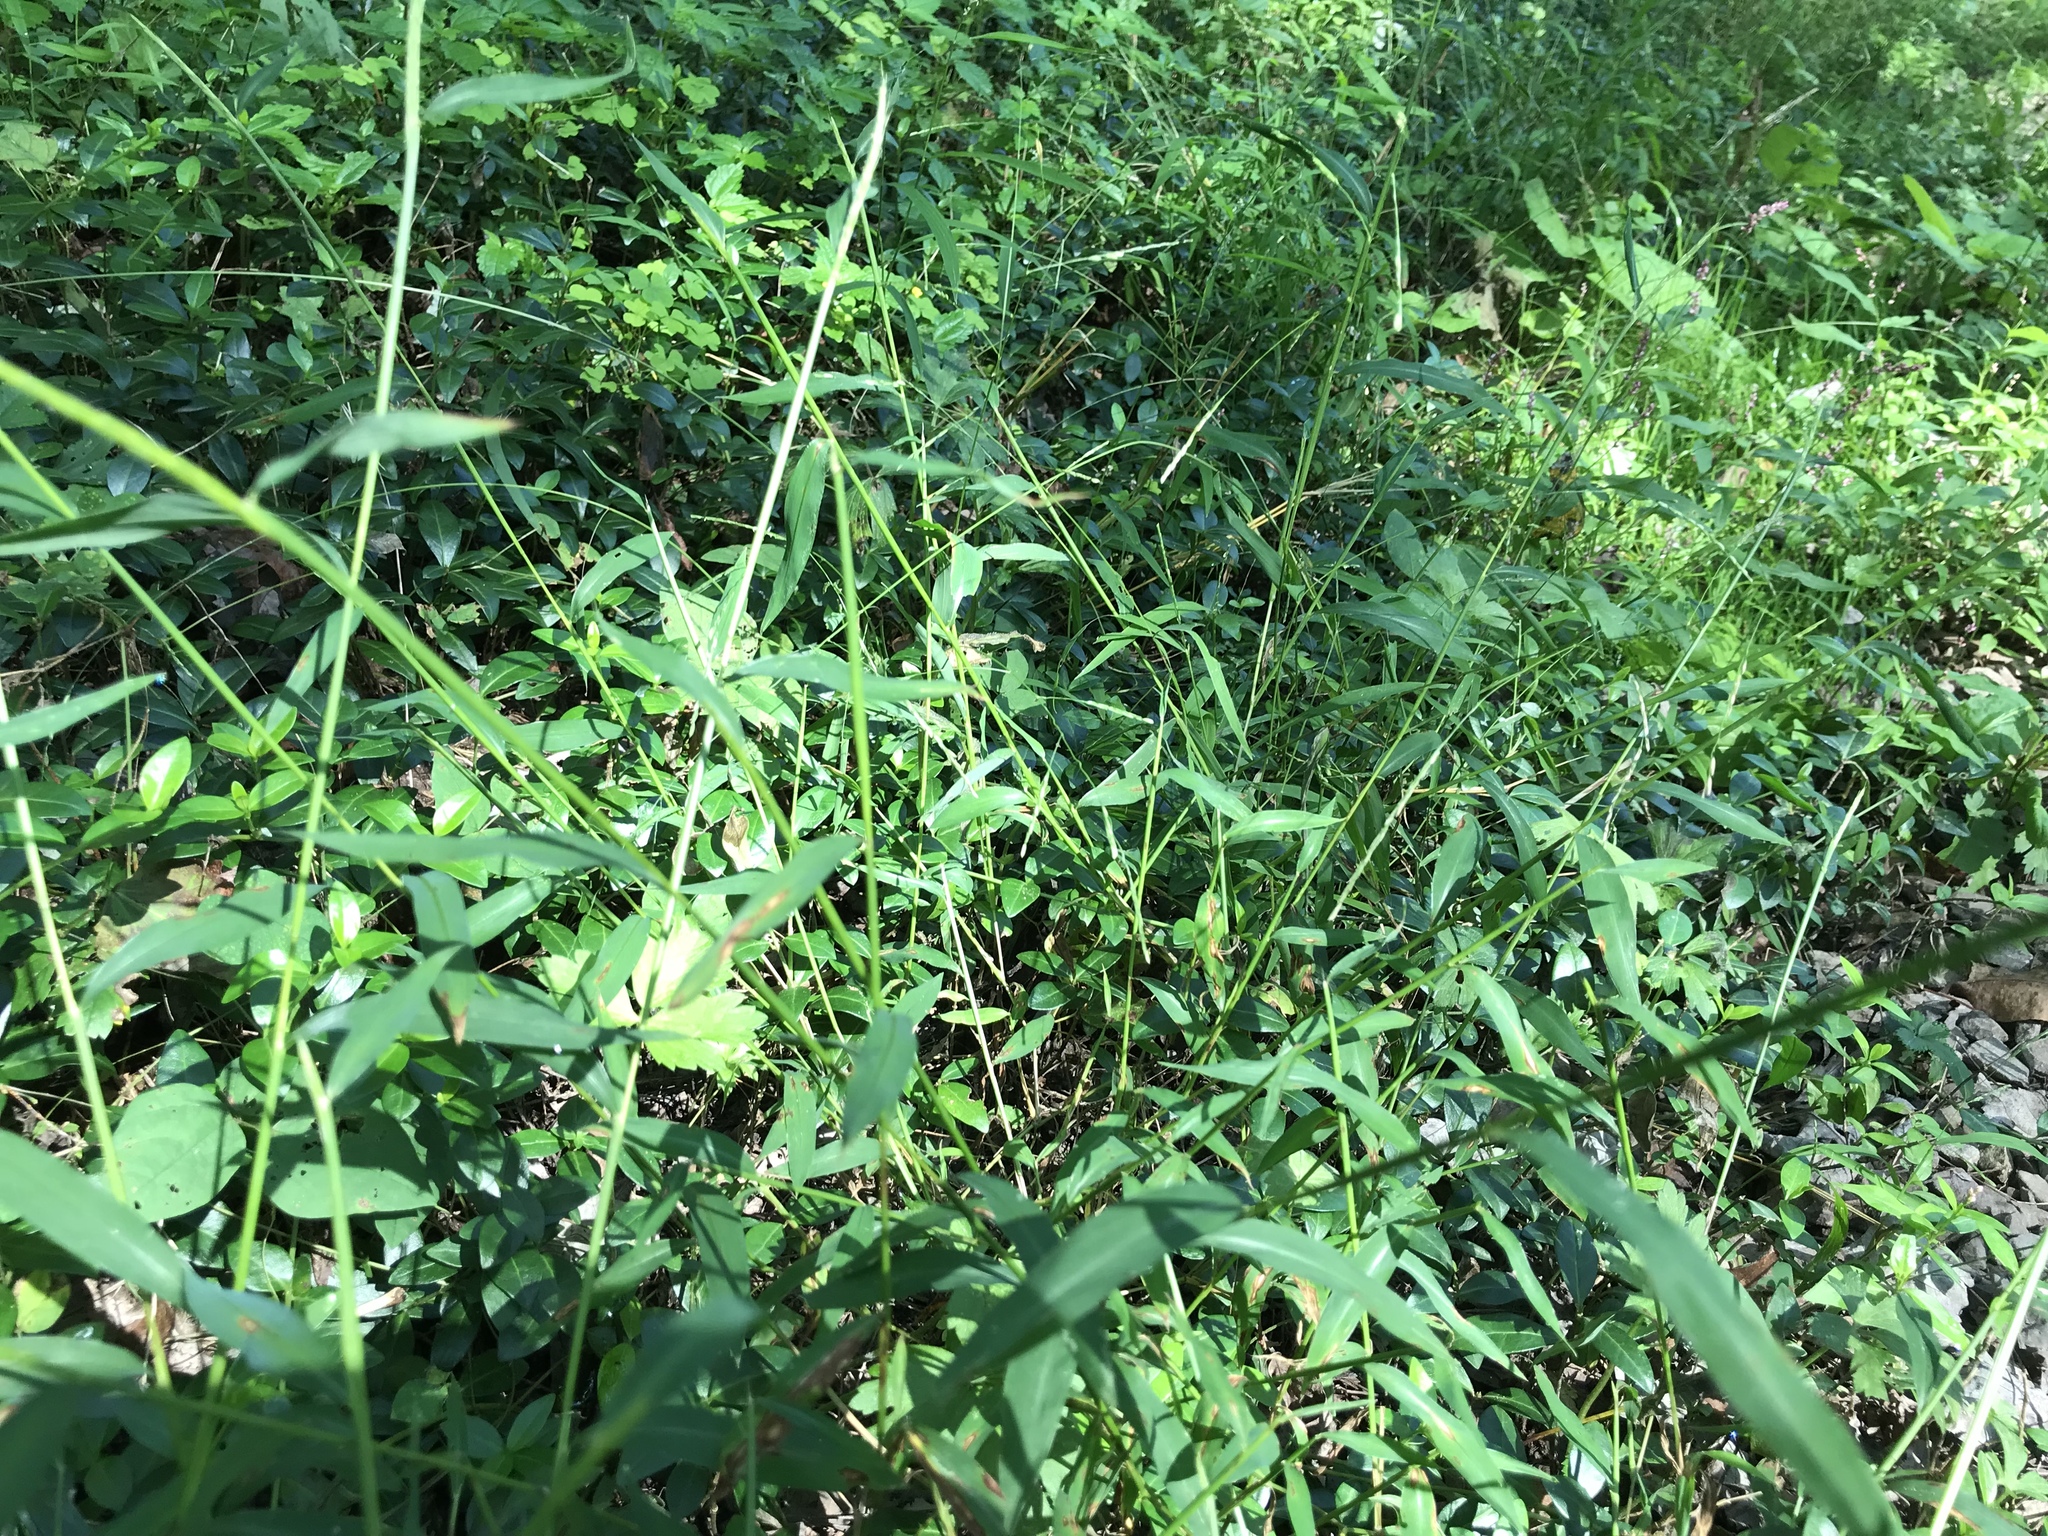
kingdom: Plantae
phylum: Tracheophyta
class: Liliopsida
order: Poales
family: Poaceae
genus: Microstegium
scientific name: Microstegium vimineum
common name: Japanese stiltgrass
